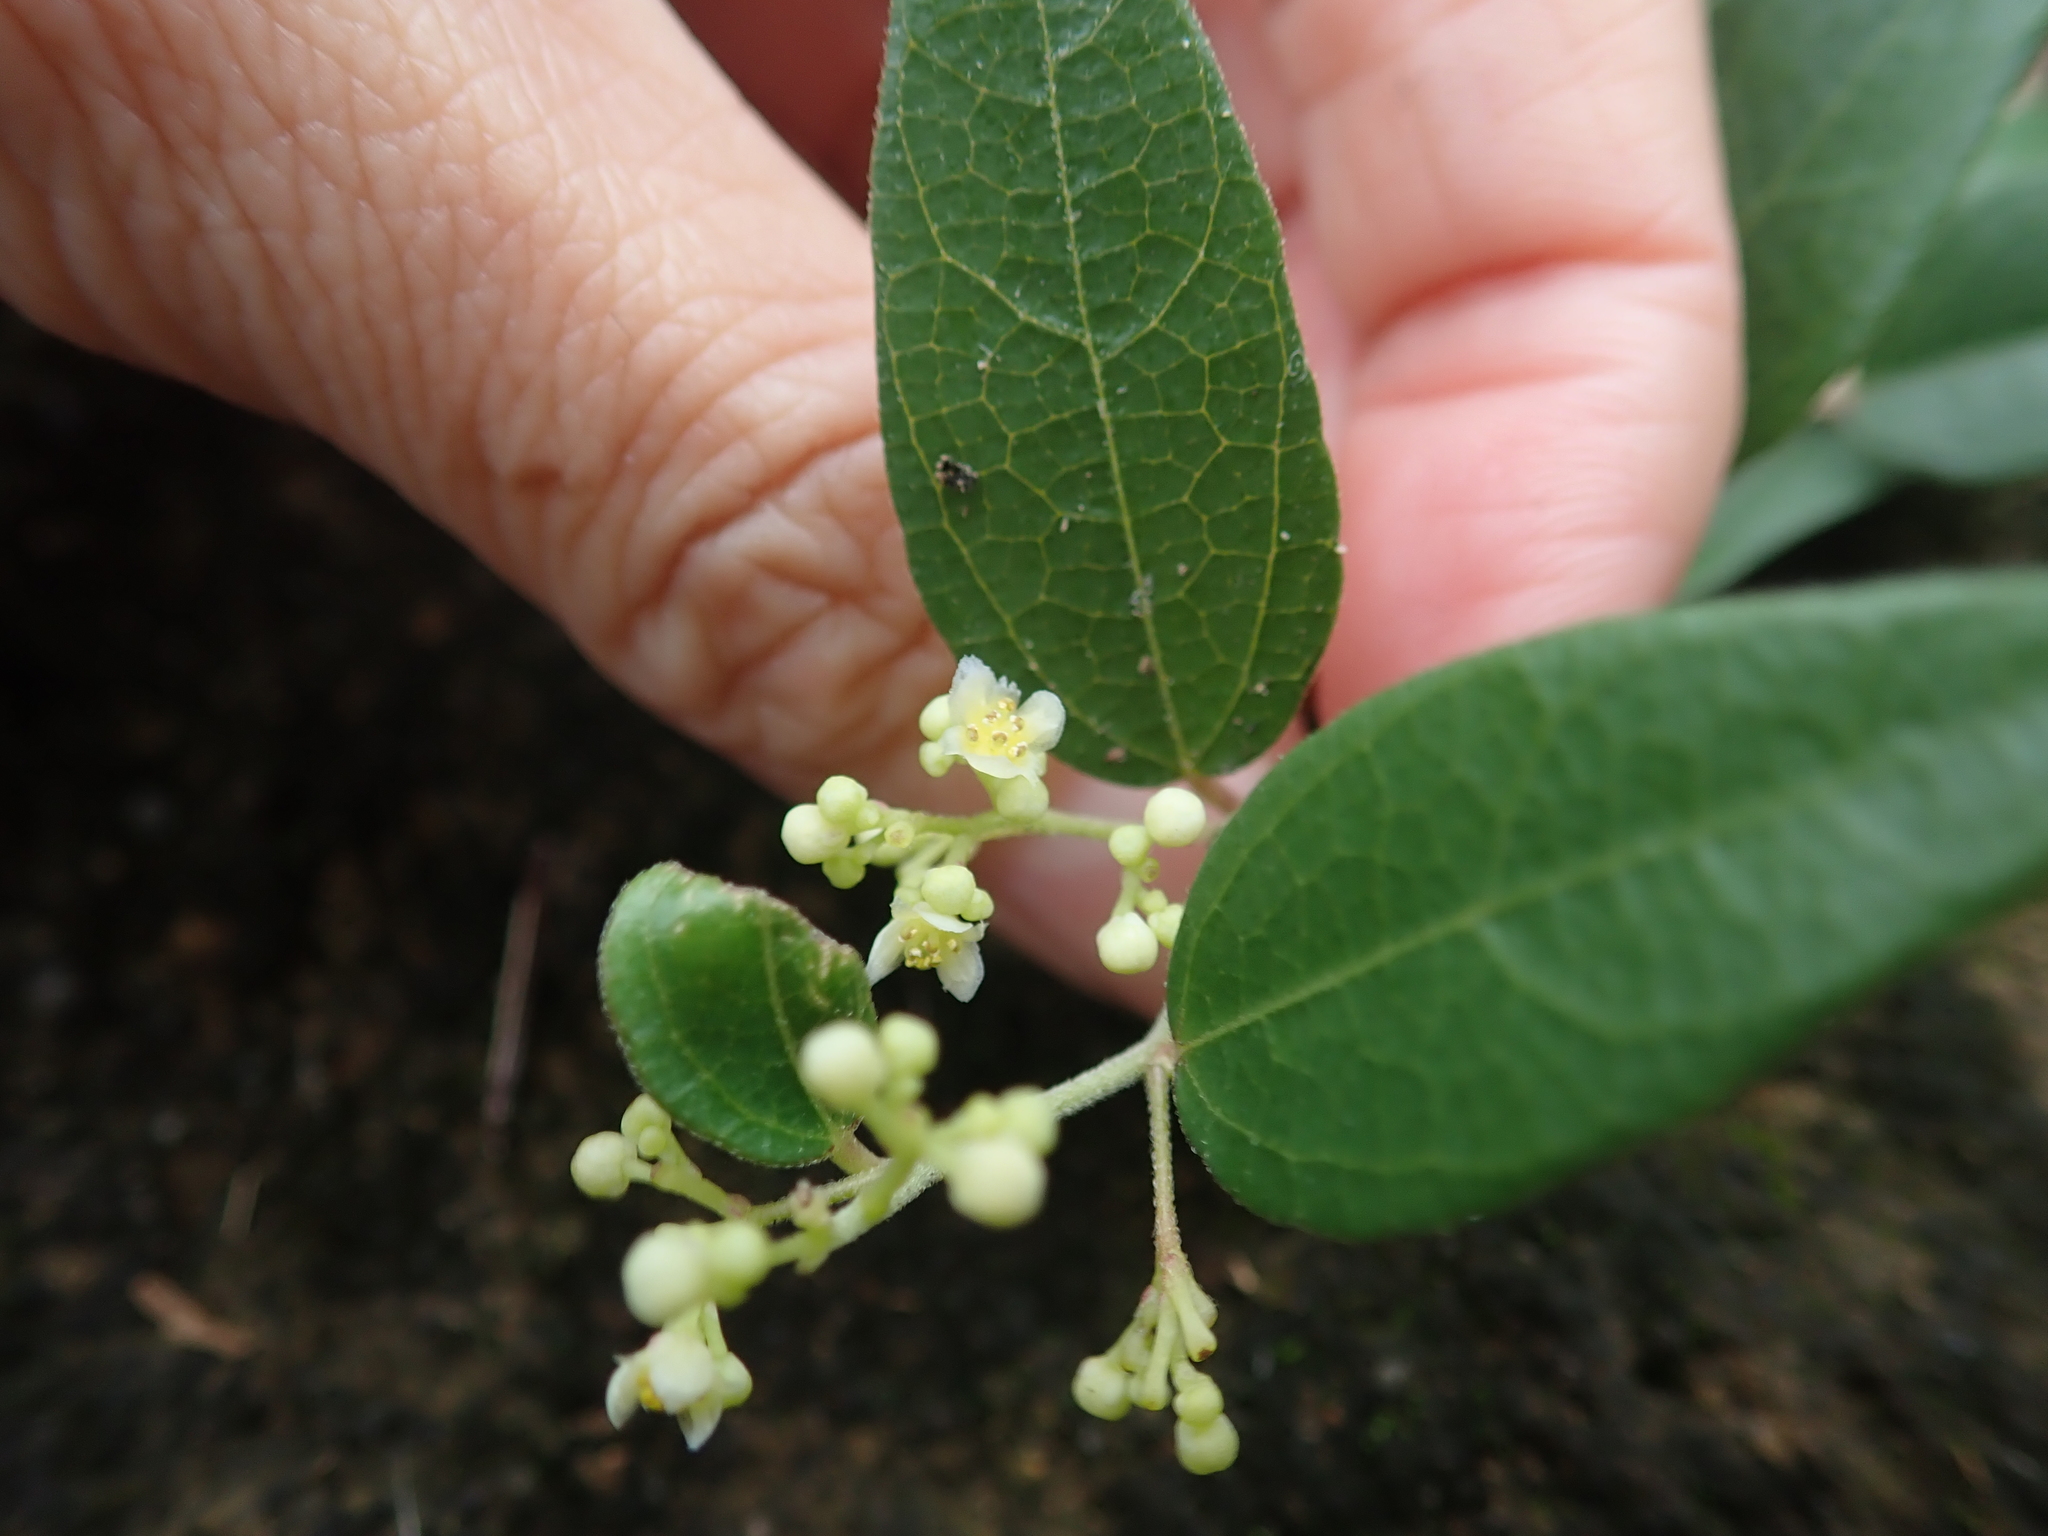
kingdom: Plantae
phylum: Tracheophyta
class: Magnoliopsida
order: Ranunculales
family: Menispermaceae
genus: Cocculus
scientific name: Cocculus orbiculatus
